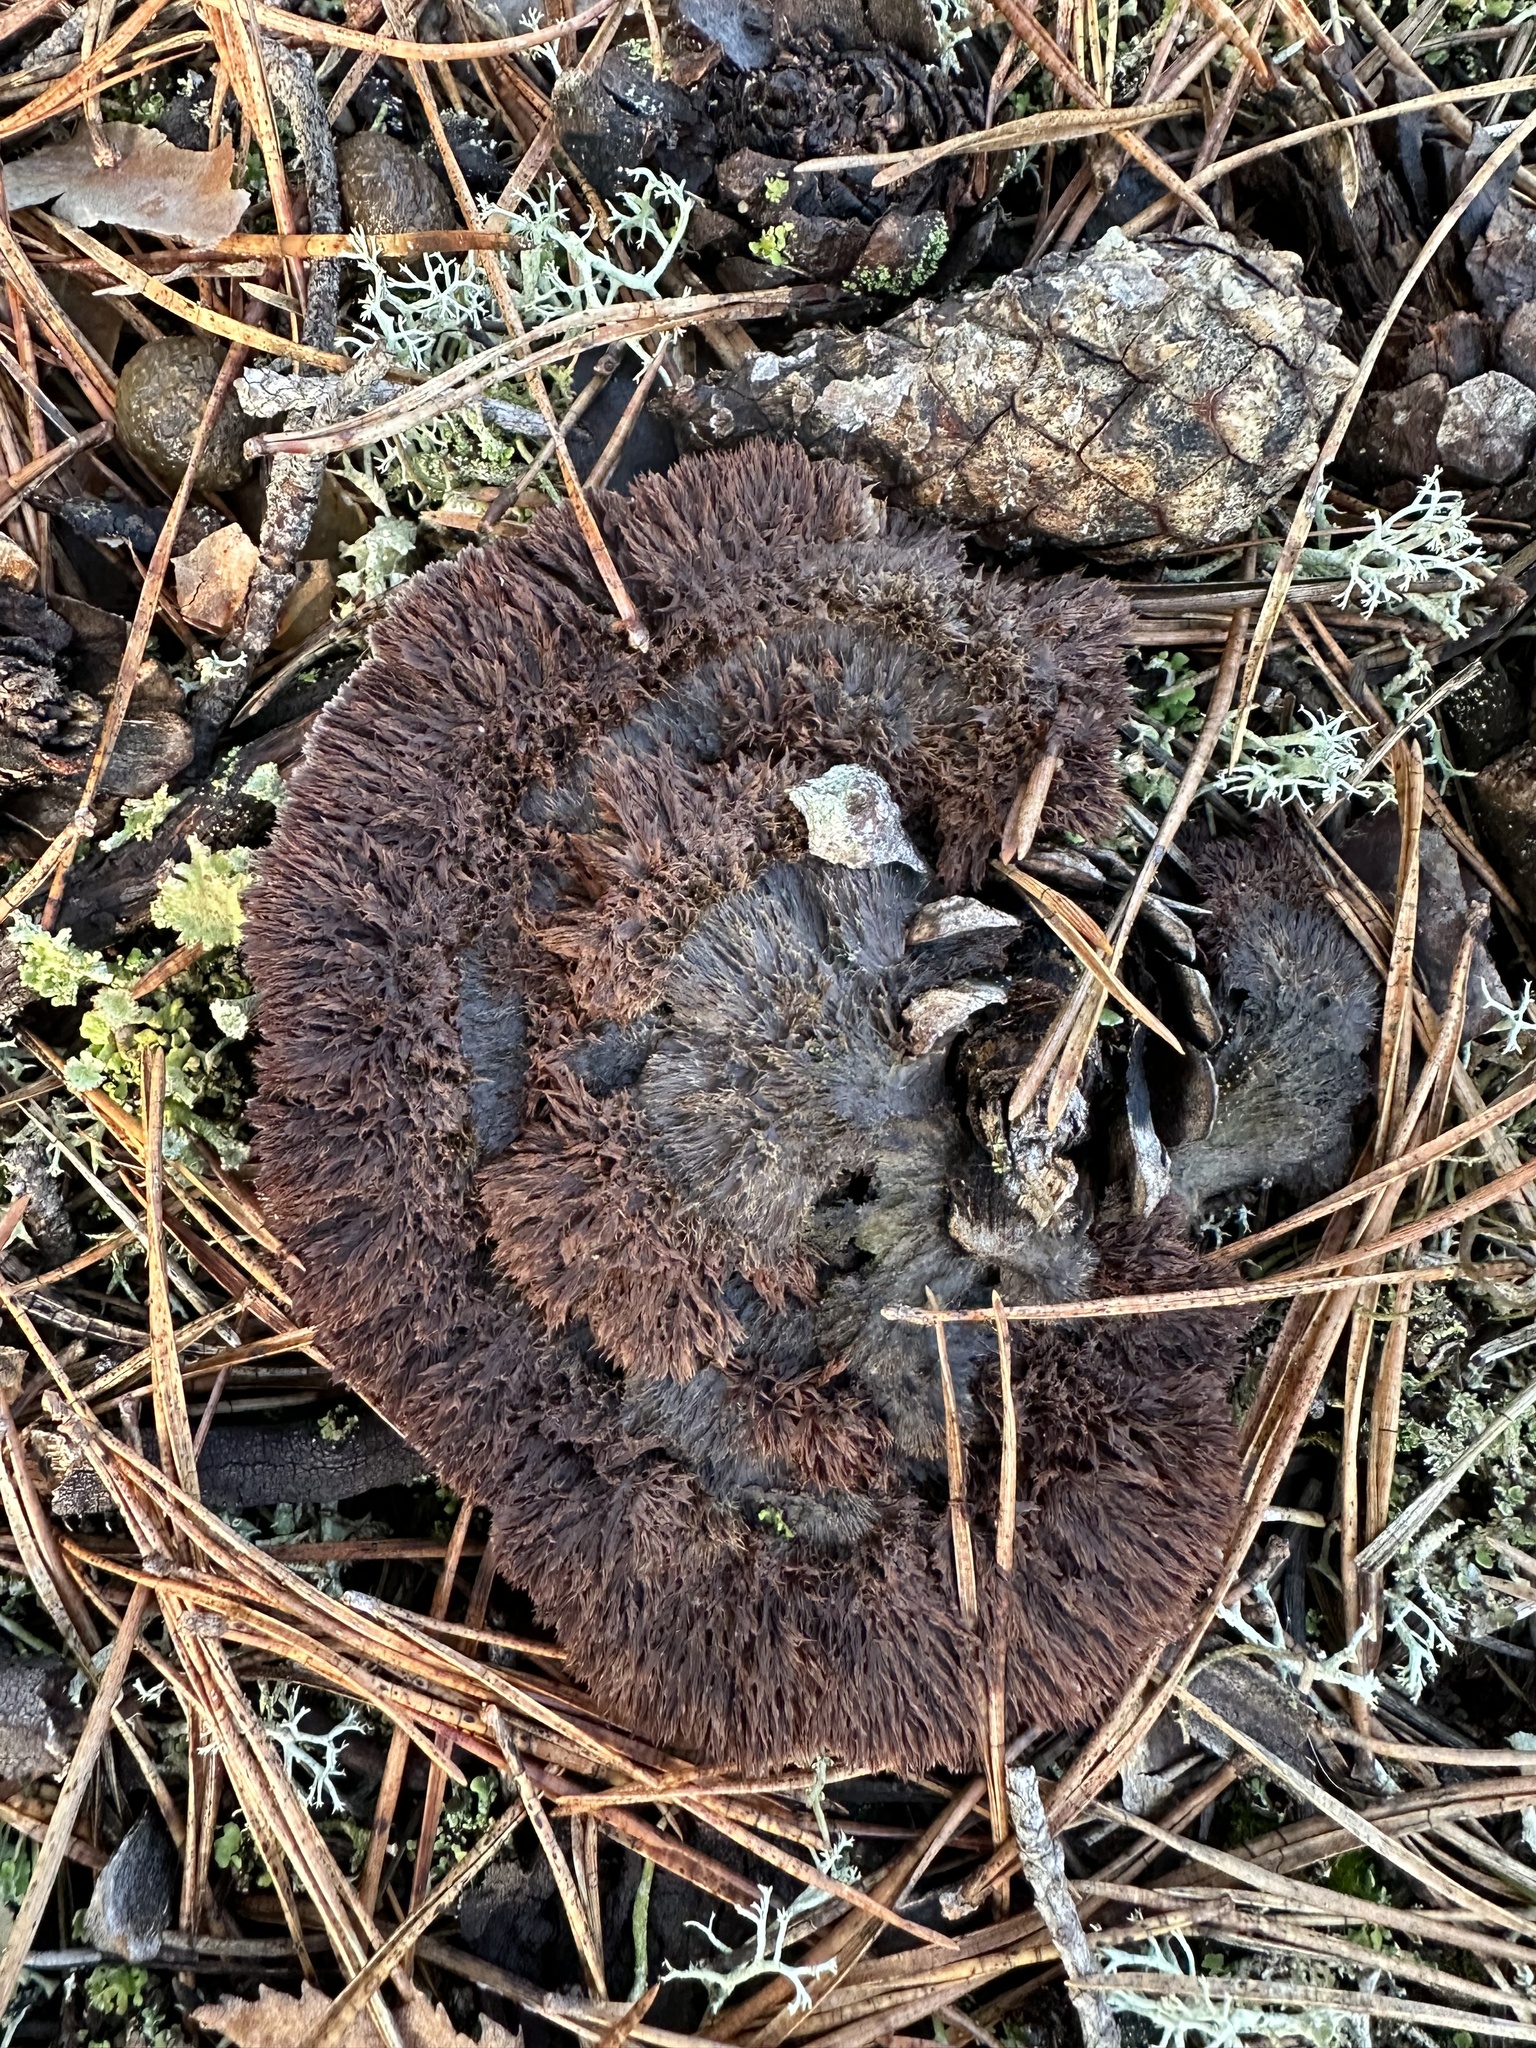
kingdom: Fungi
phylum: Basidiomycota
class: Agaricomycetes
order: Thelephorales
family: Thelephoraceae
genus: Thelephora
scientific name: Thelephora terrestris
